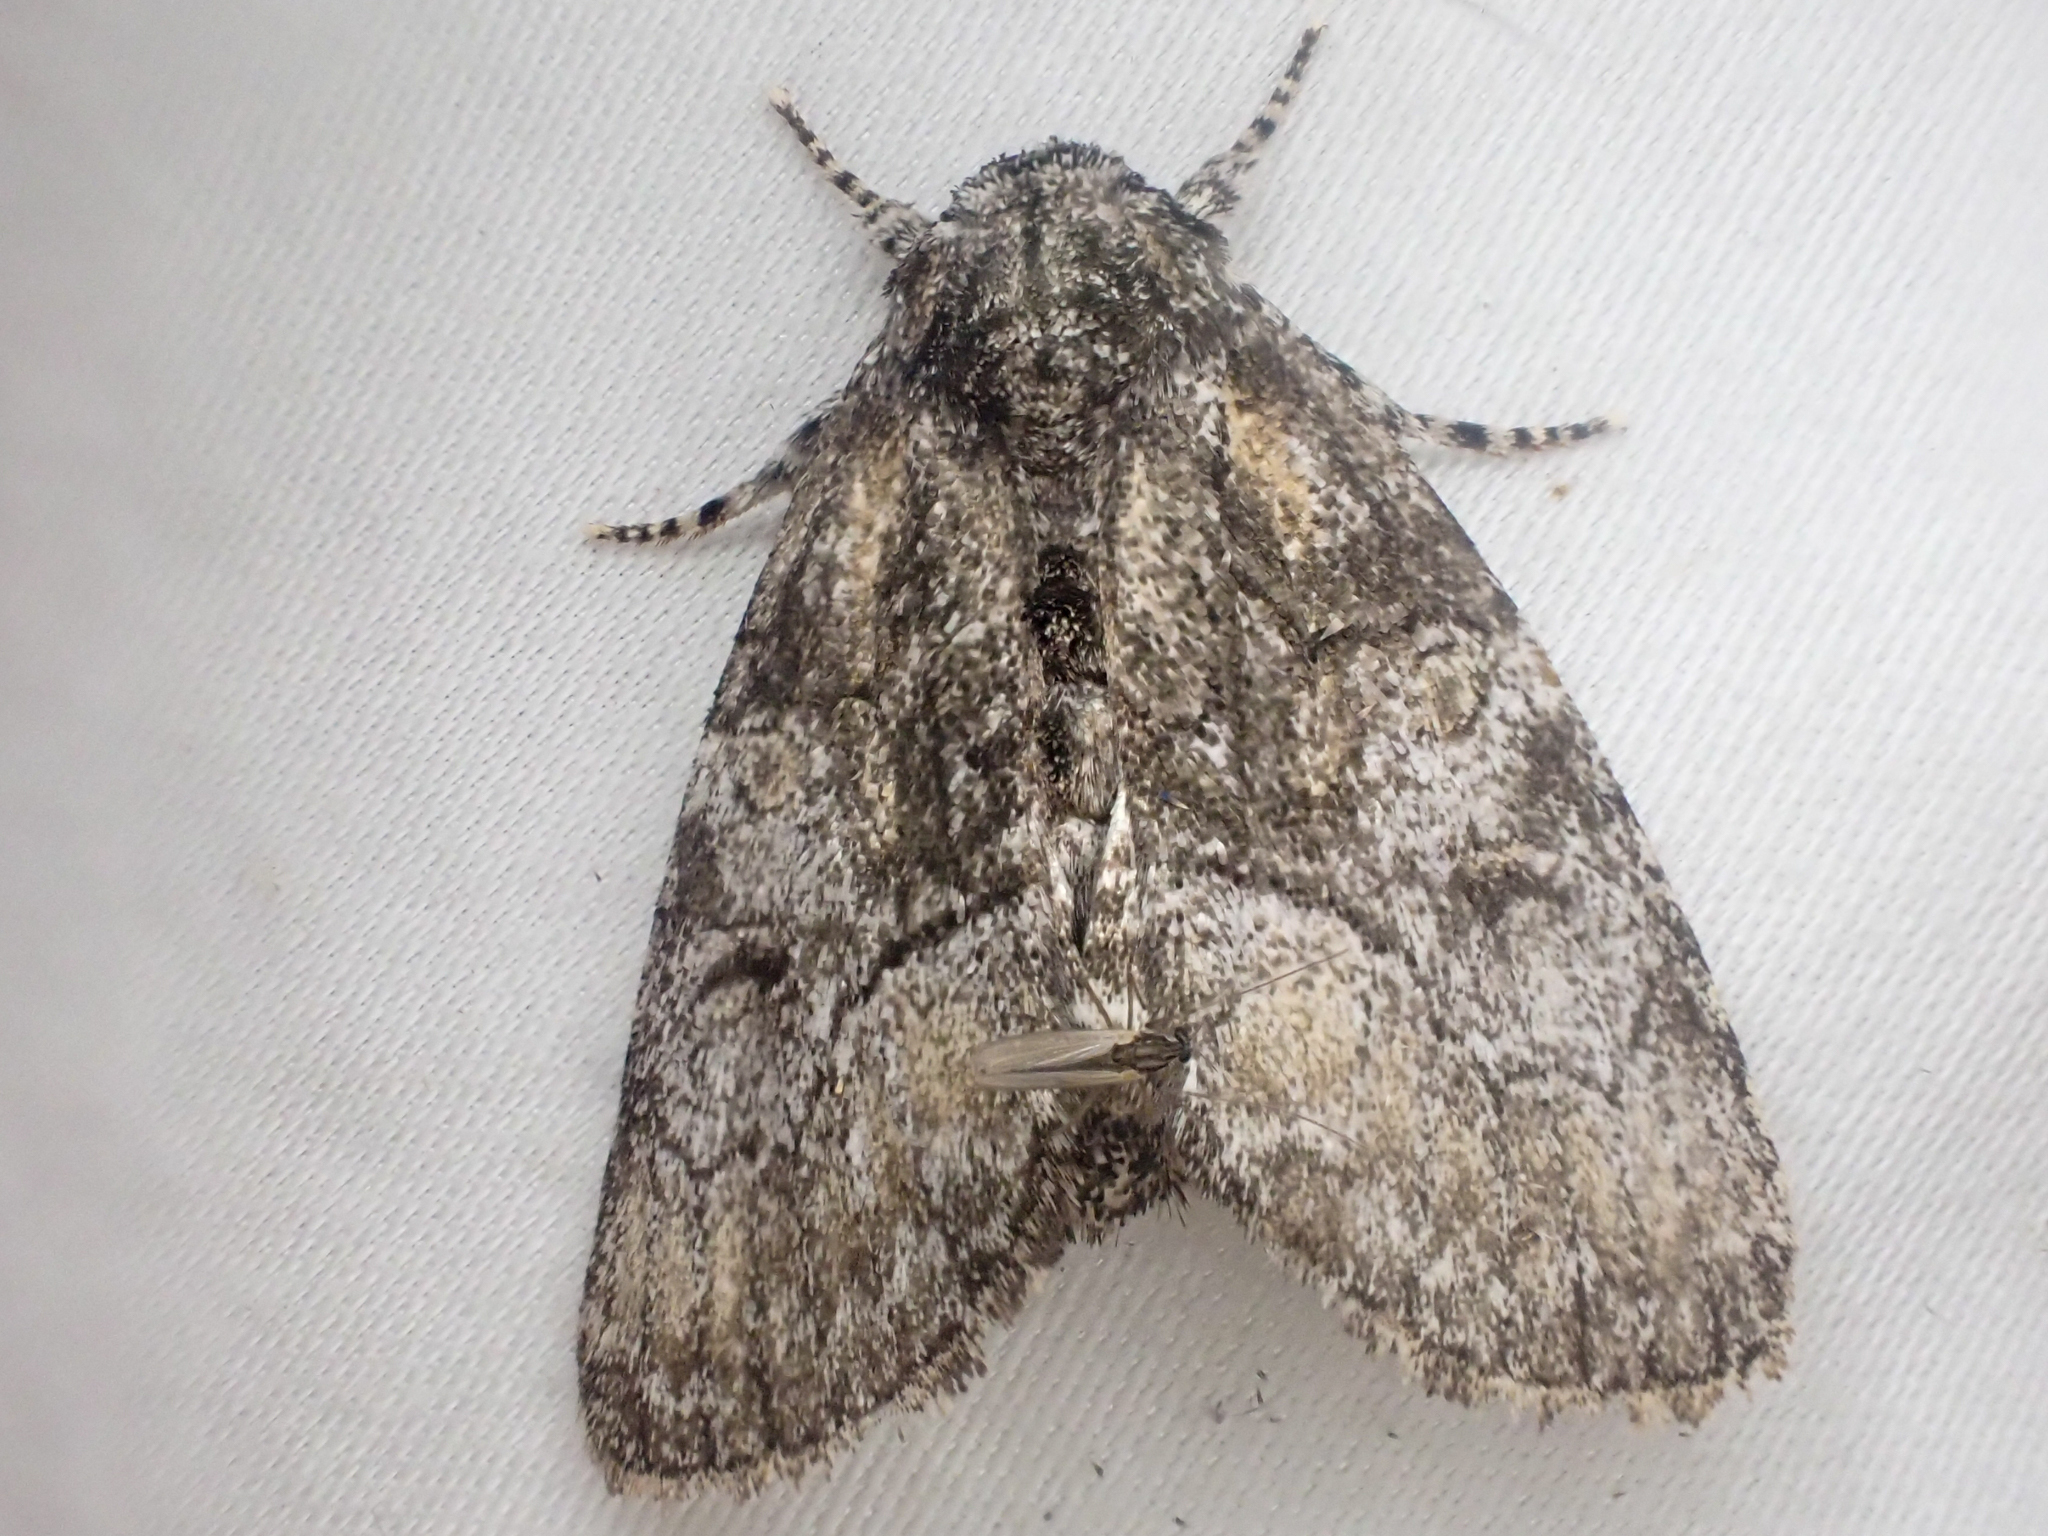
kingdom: Animalia
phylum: Arthropoda
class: Insecta
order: Lepidoptera
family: Noctuidae
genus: Raphia
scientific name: Raphia frater
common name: Brother
